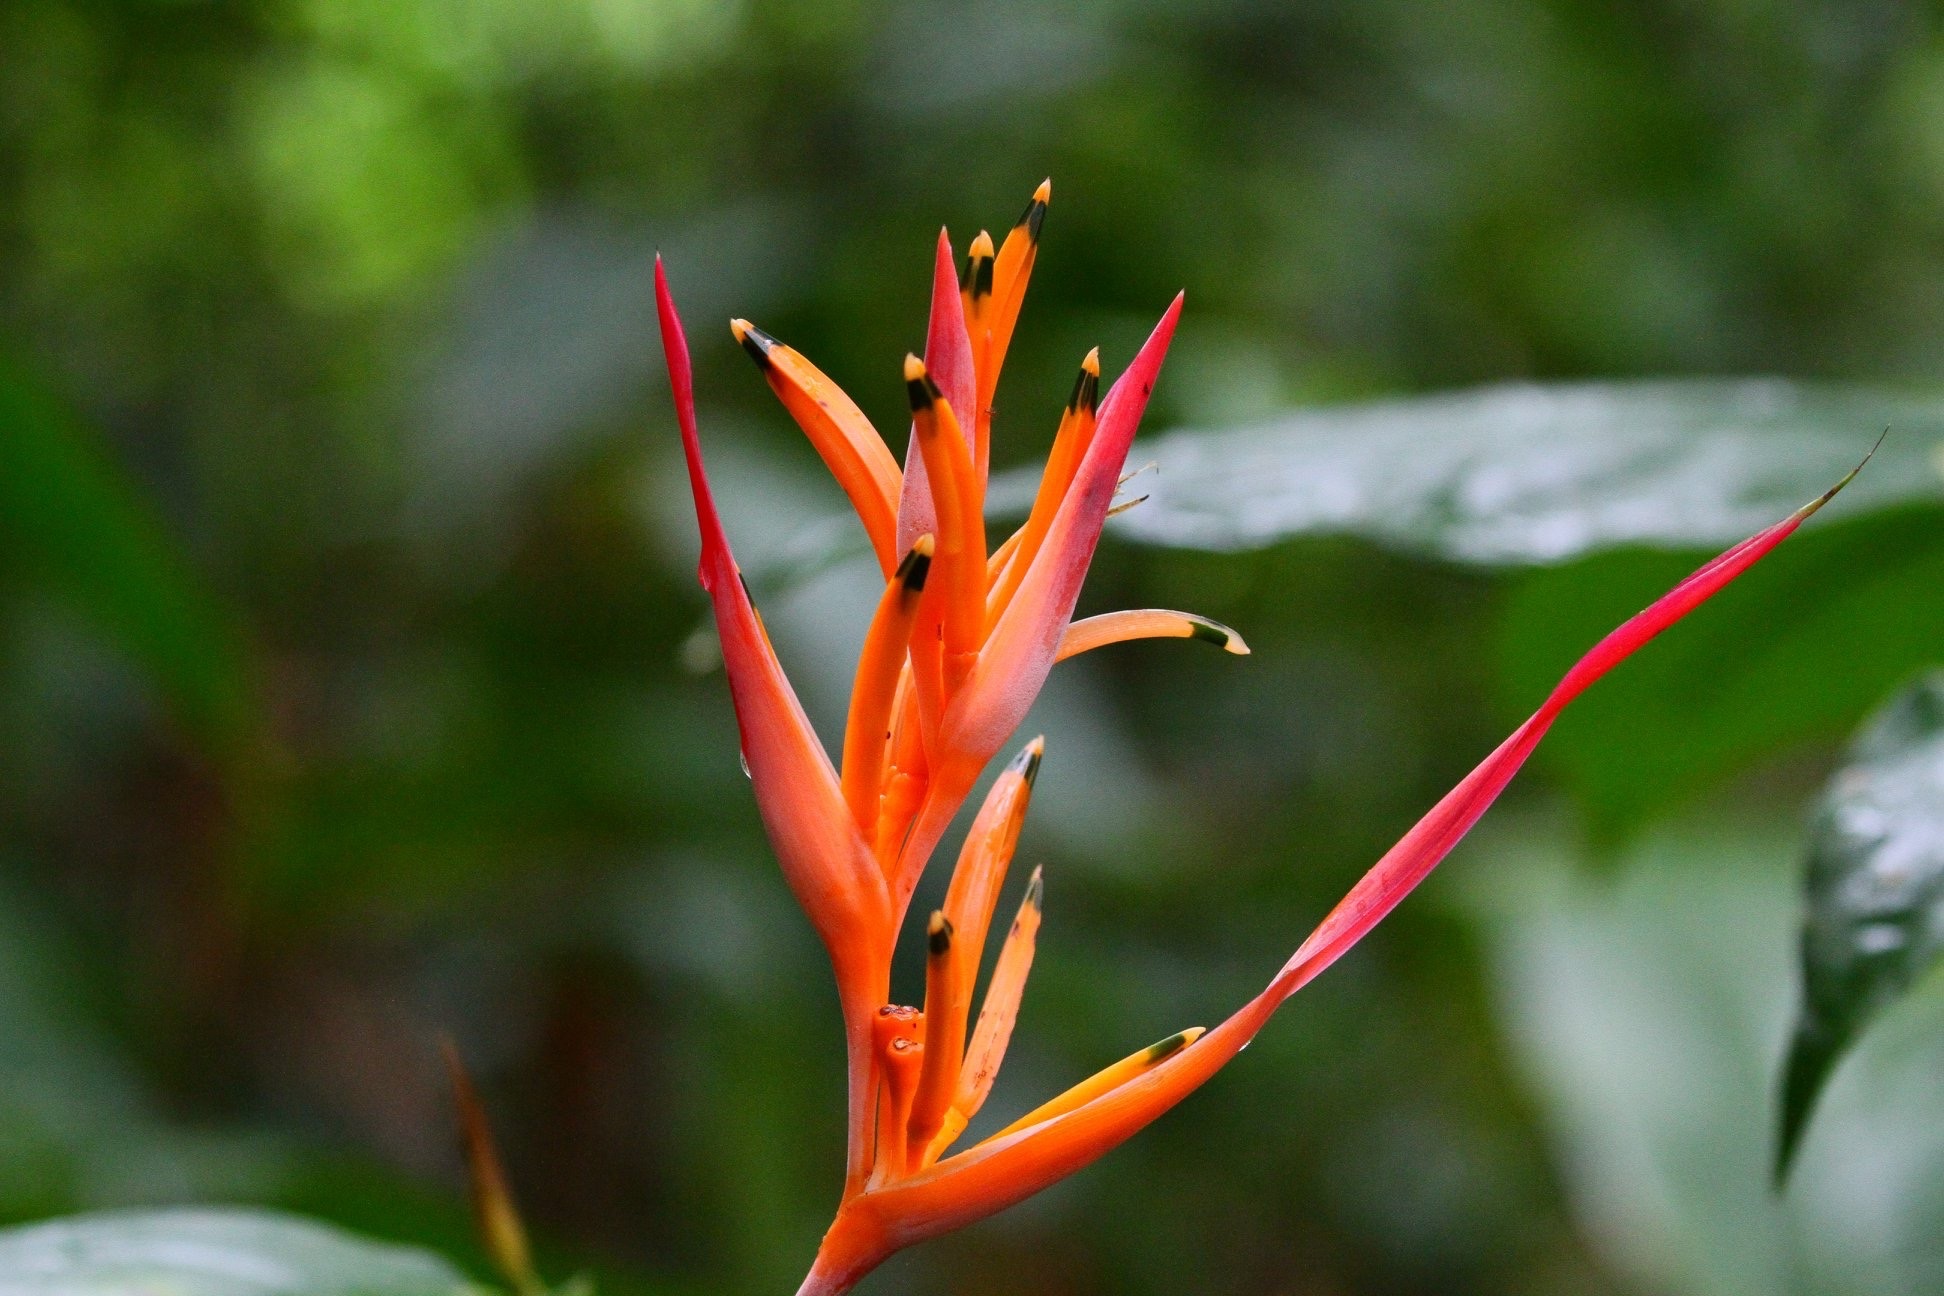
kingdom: Plantae
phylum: Tracheophyta
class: Liliopsida
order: Zingiberales
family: Heliconiaceae
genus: Heliconia
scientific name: Heliconia psittacorum
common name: Parrot's-flower
